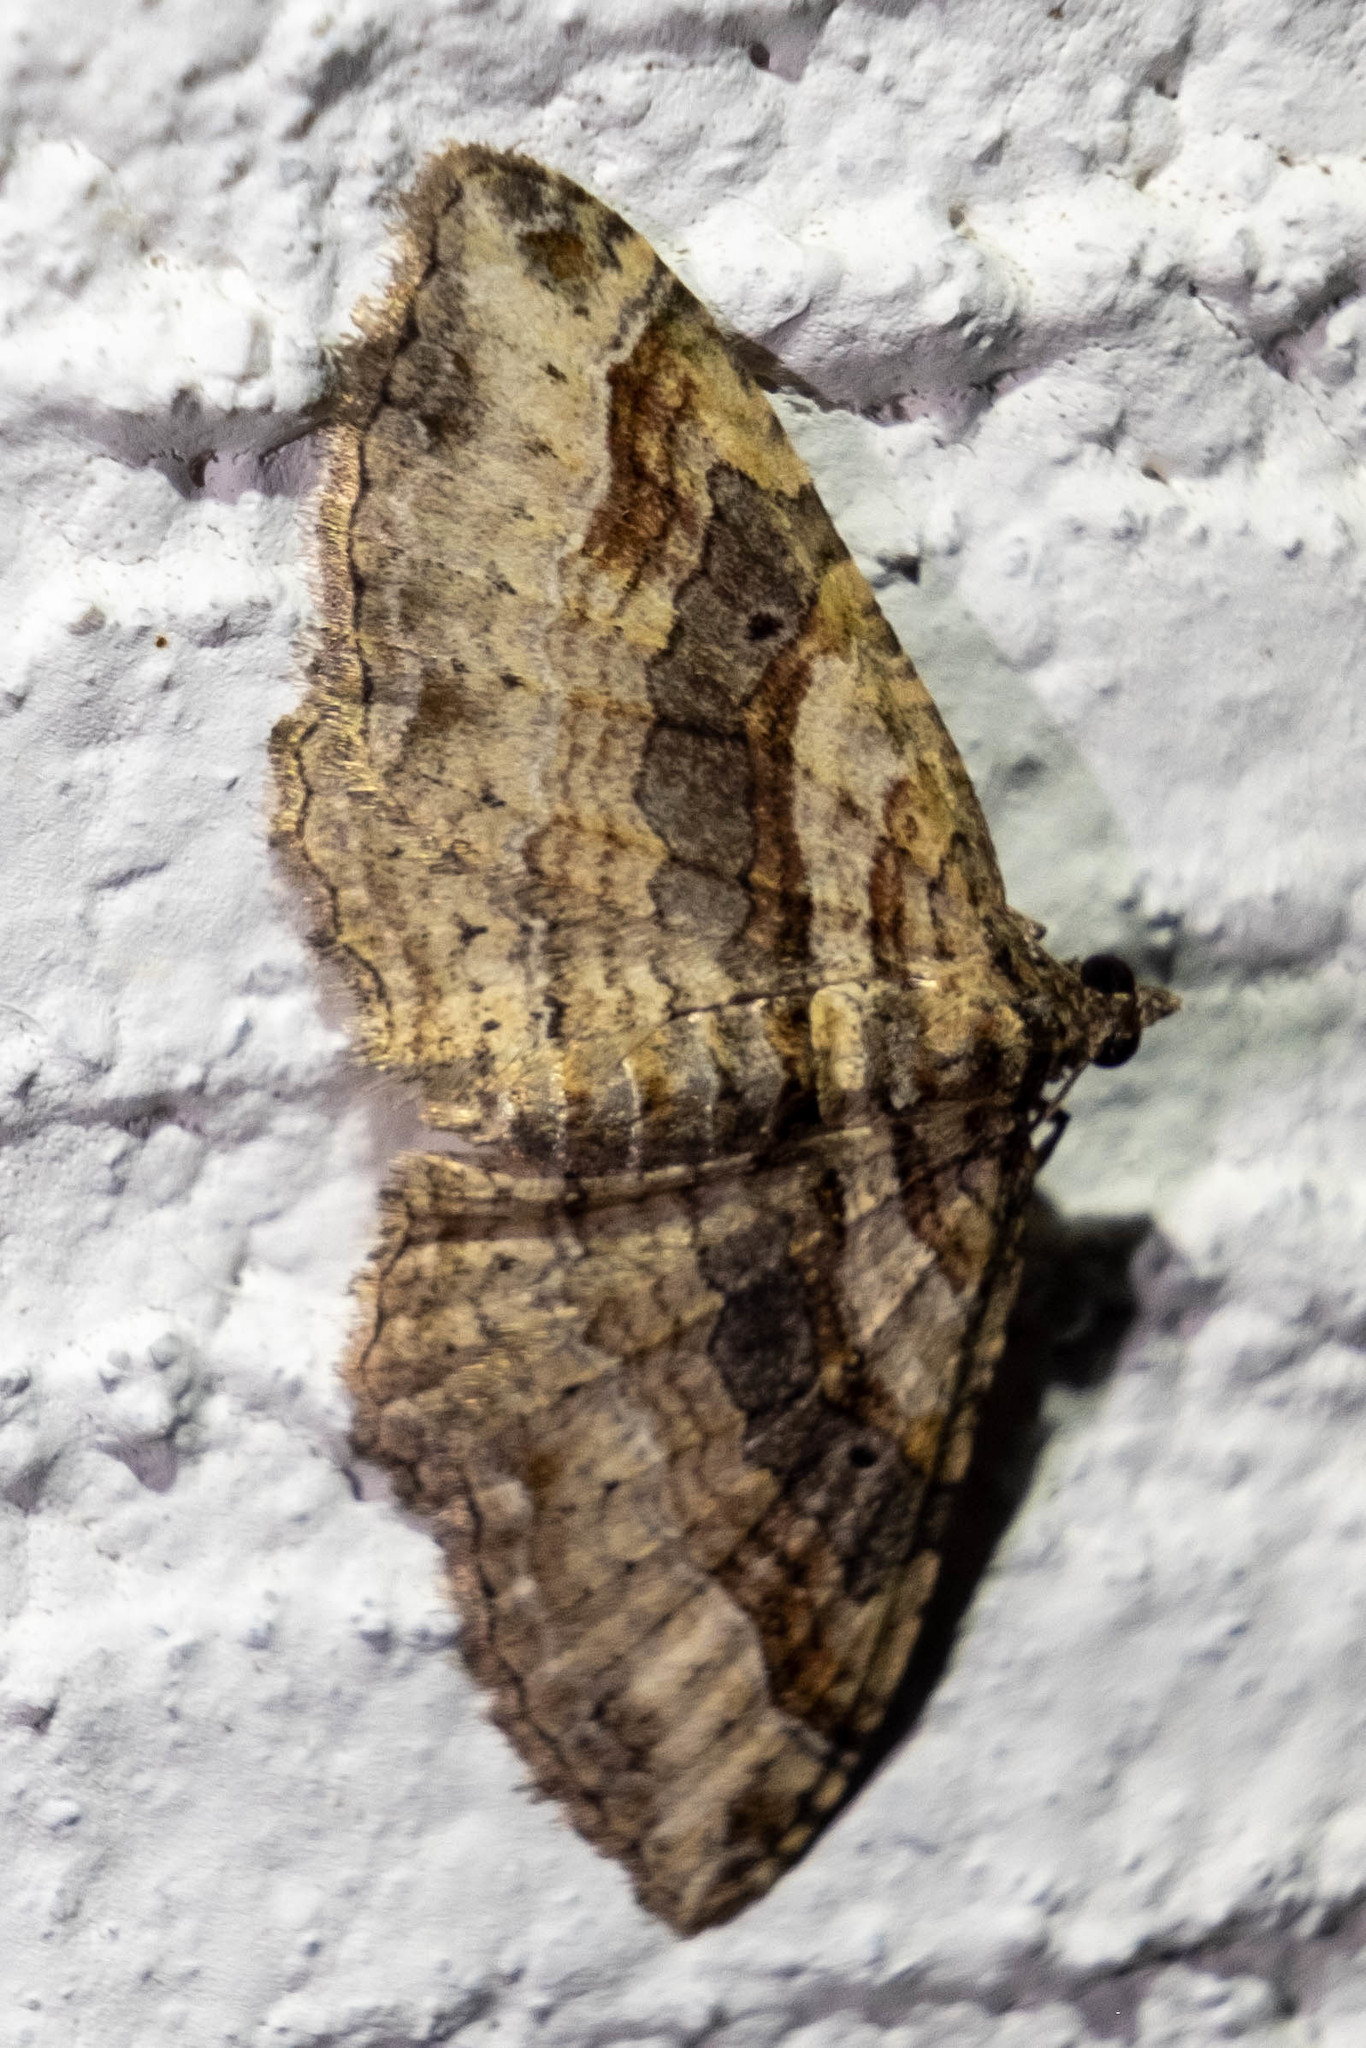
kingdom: Animalia
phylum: Arthropoda
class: Insecta
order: Lepidoptera
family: Geometridae
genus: Costaconvexa
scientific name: Costaconvexa centrostrigaria
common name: Bent-line carpet
